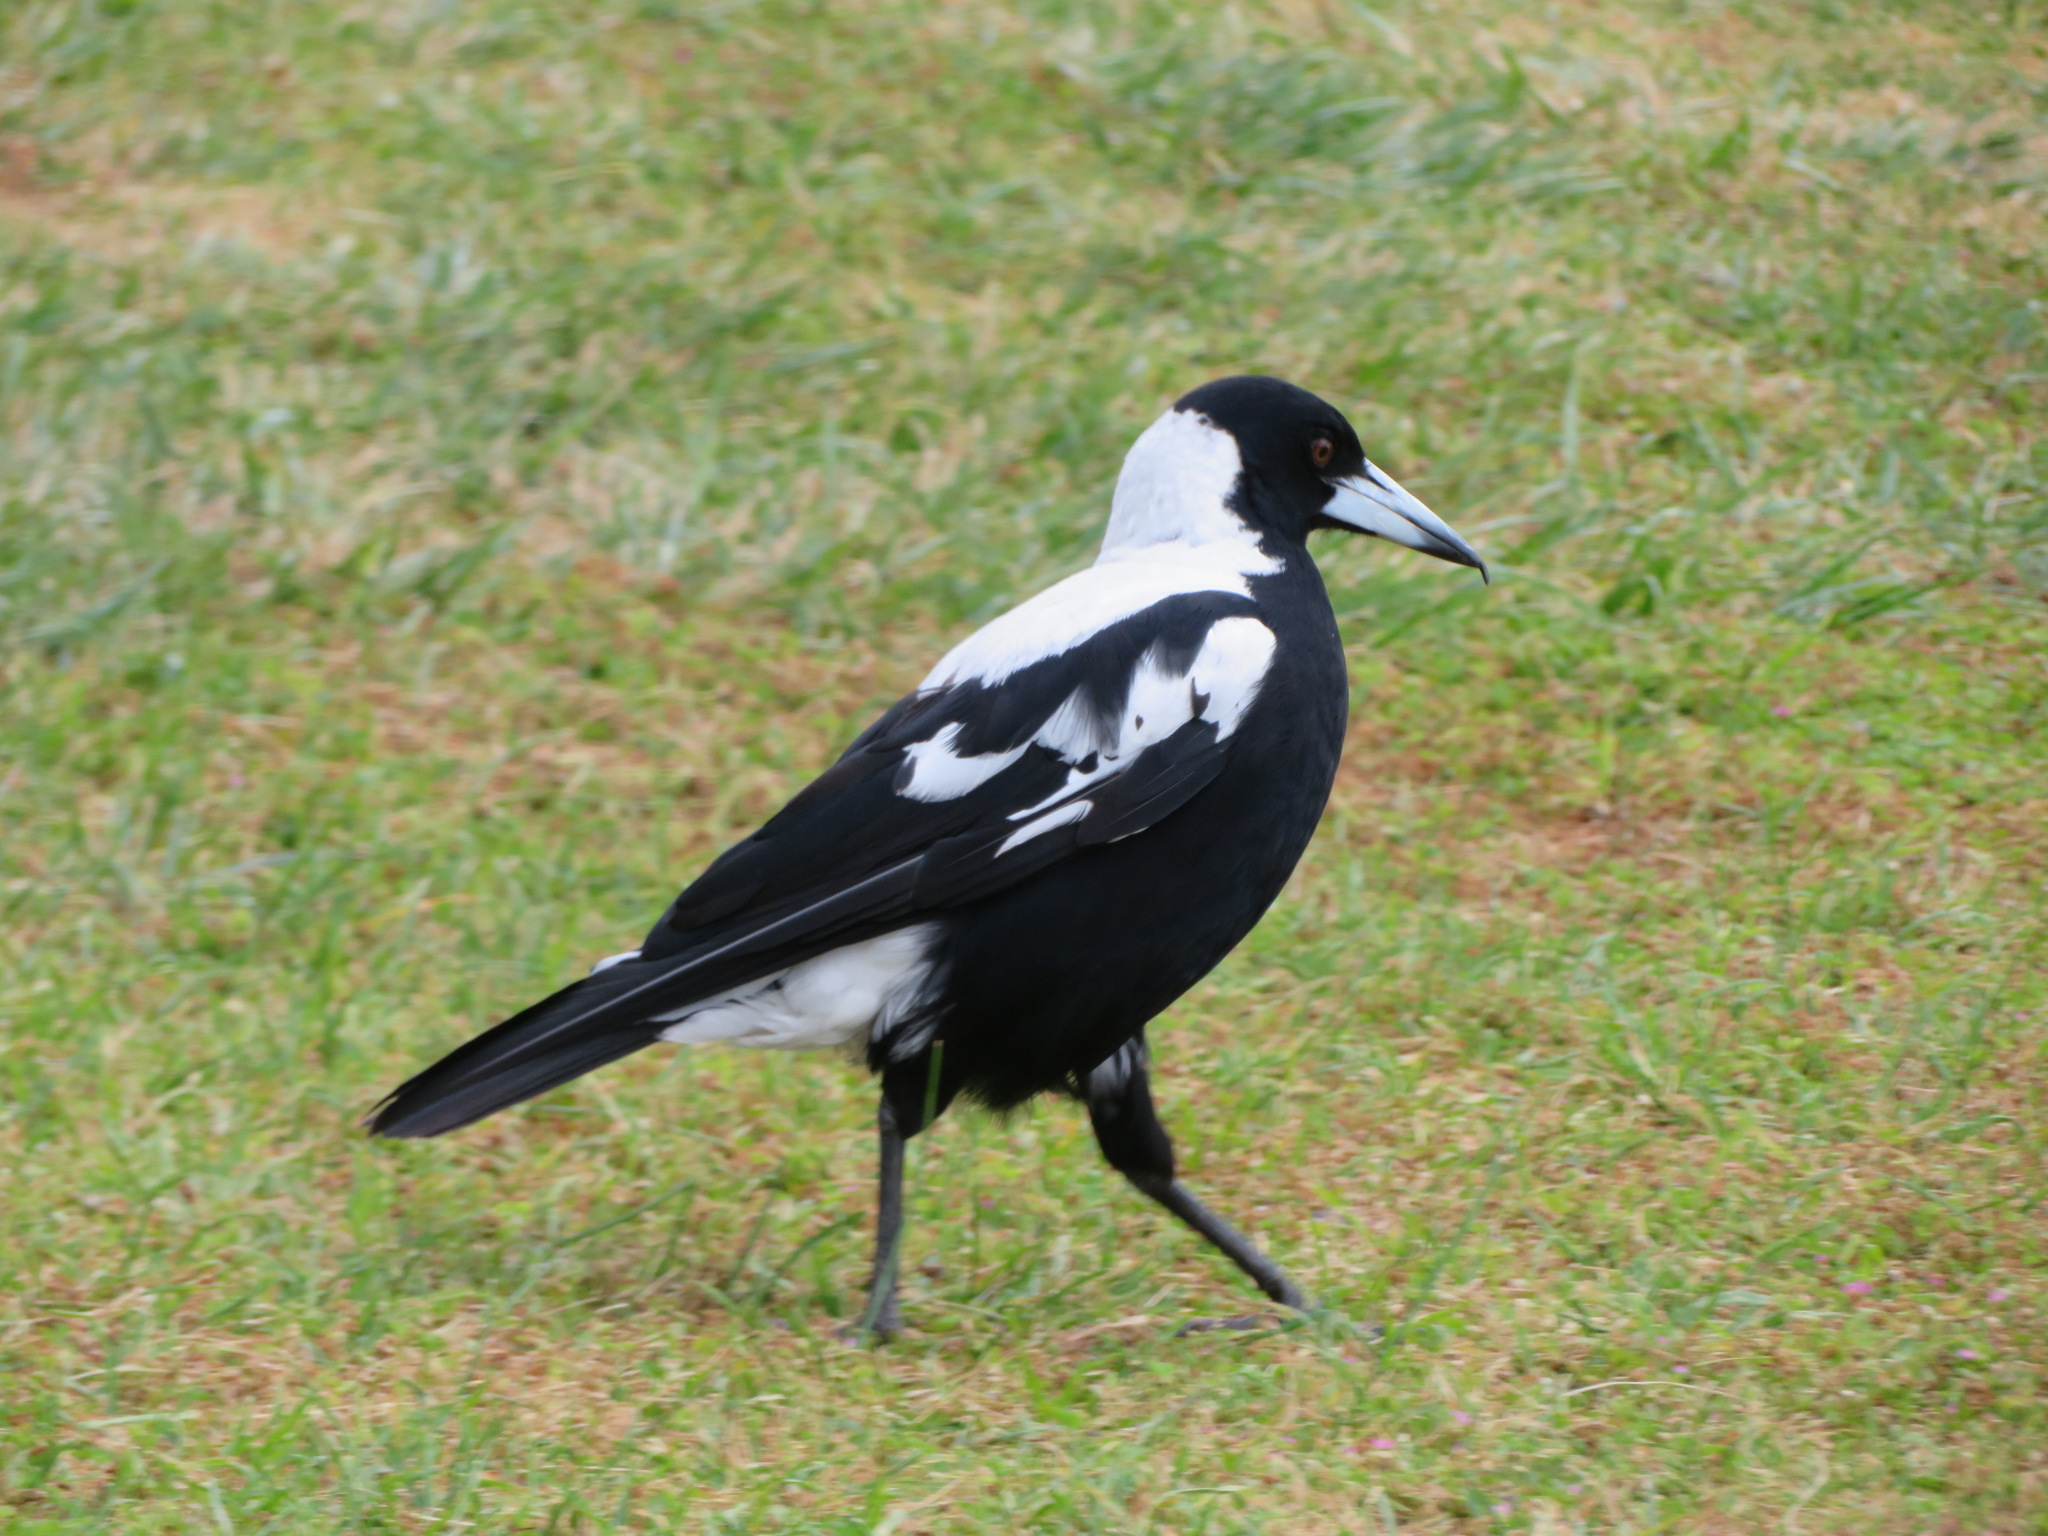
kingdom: Animalia
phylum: Chordata
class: Aves
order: Passeriformes
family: Cracticidae
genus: Gymnorhina
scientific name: Gymnorhina tibicen
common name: Australian magpie
